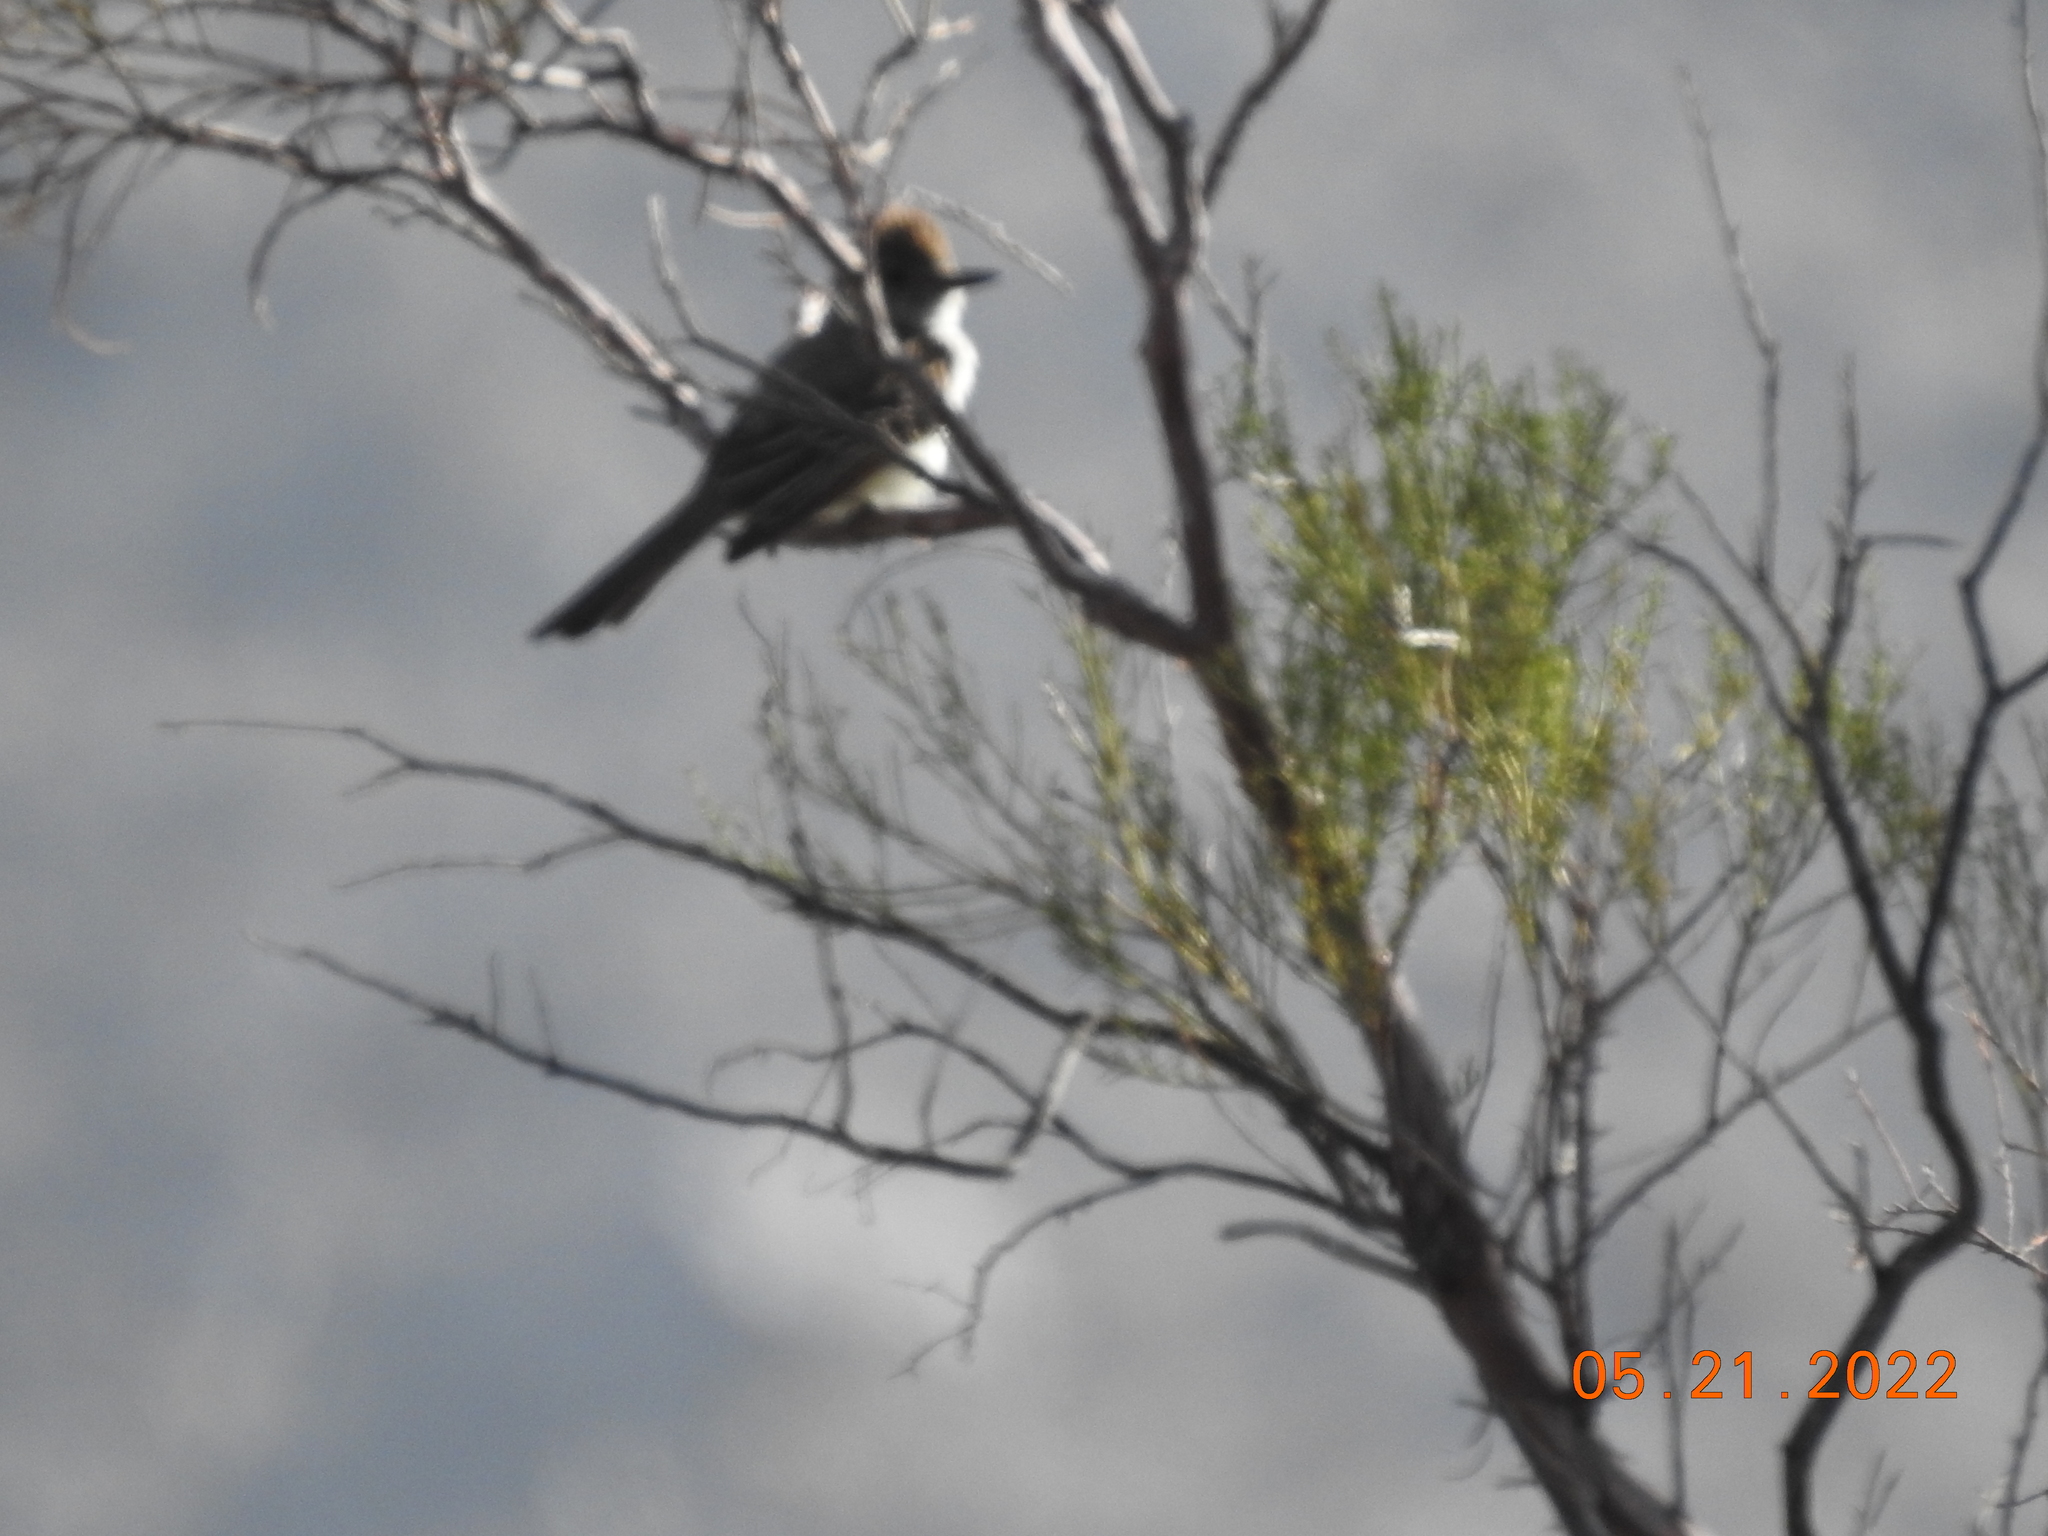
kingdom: Animalia
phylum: Chordata
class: Aves
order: Passeriformes
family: Tyrannidae
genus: Myiarchus
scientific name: Myiarchus cinerascens
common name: Ash-throated flycatcher
